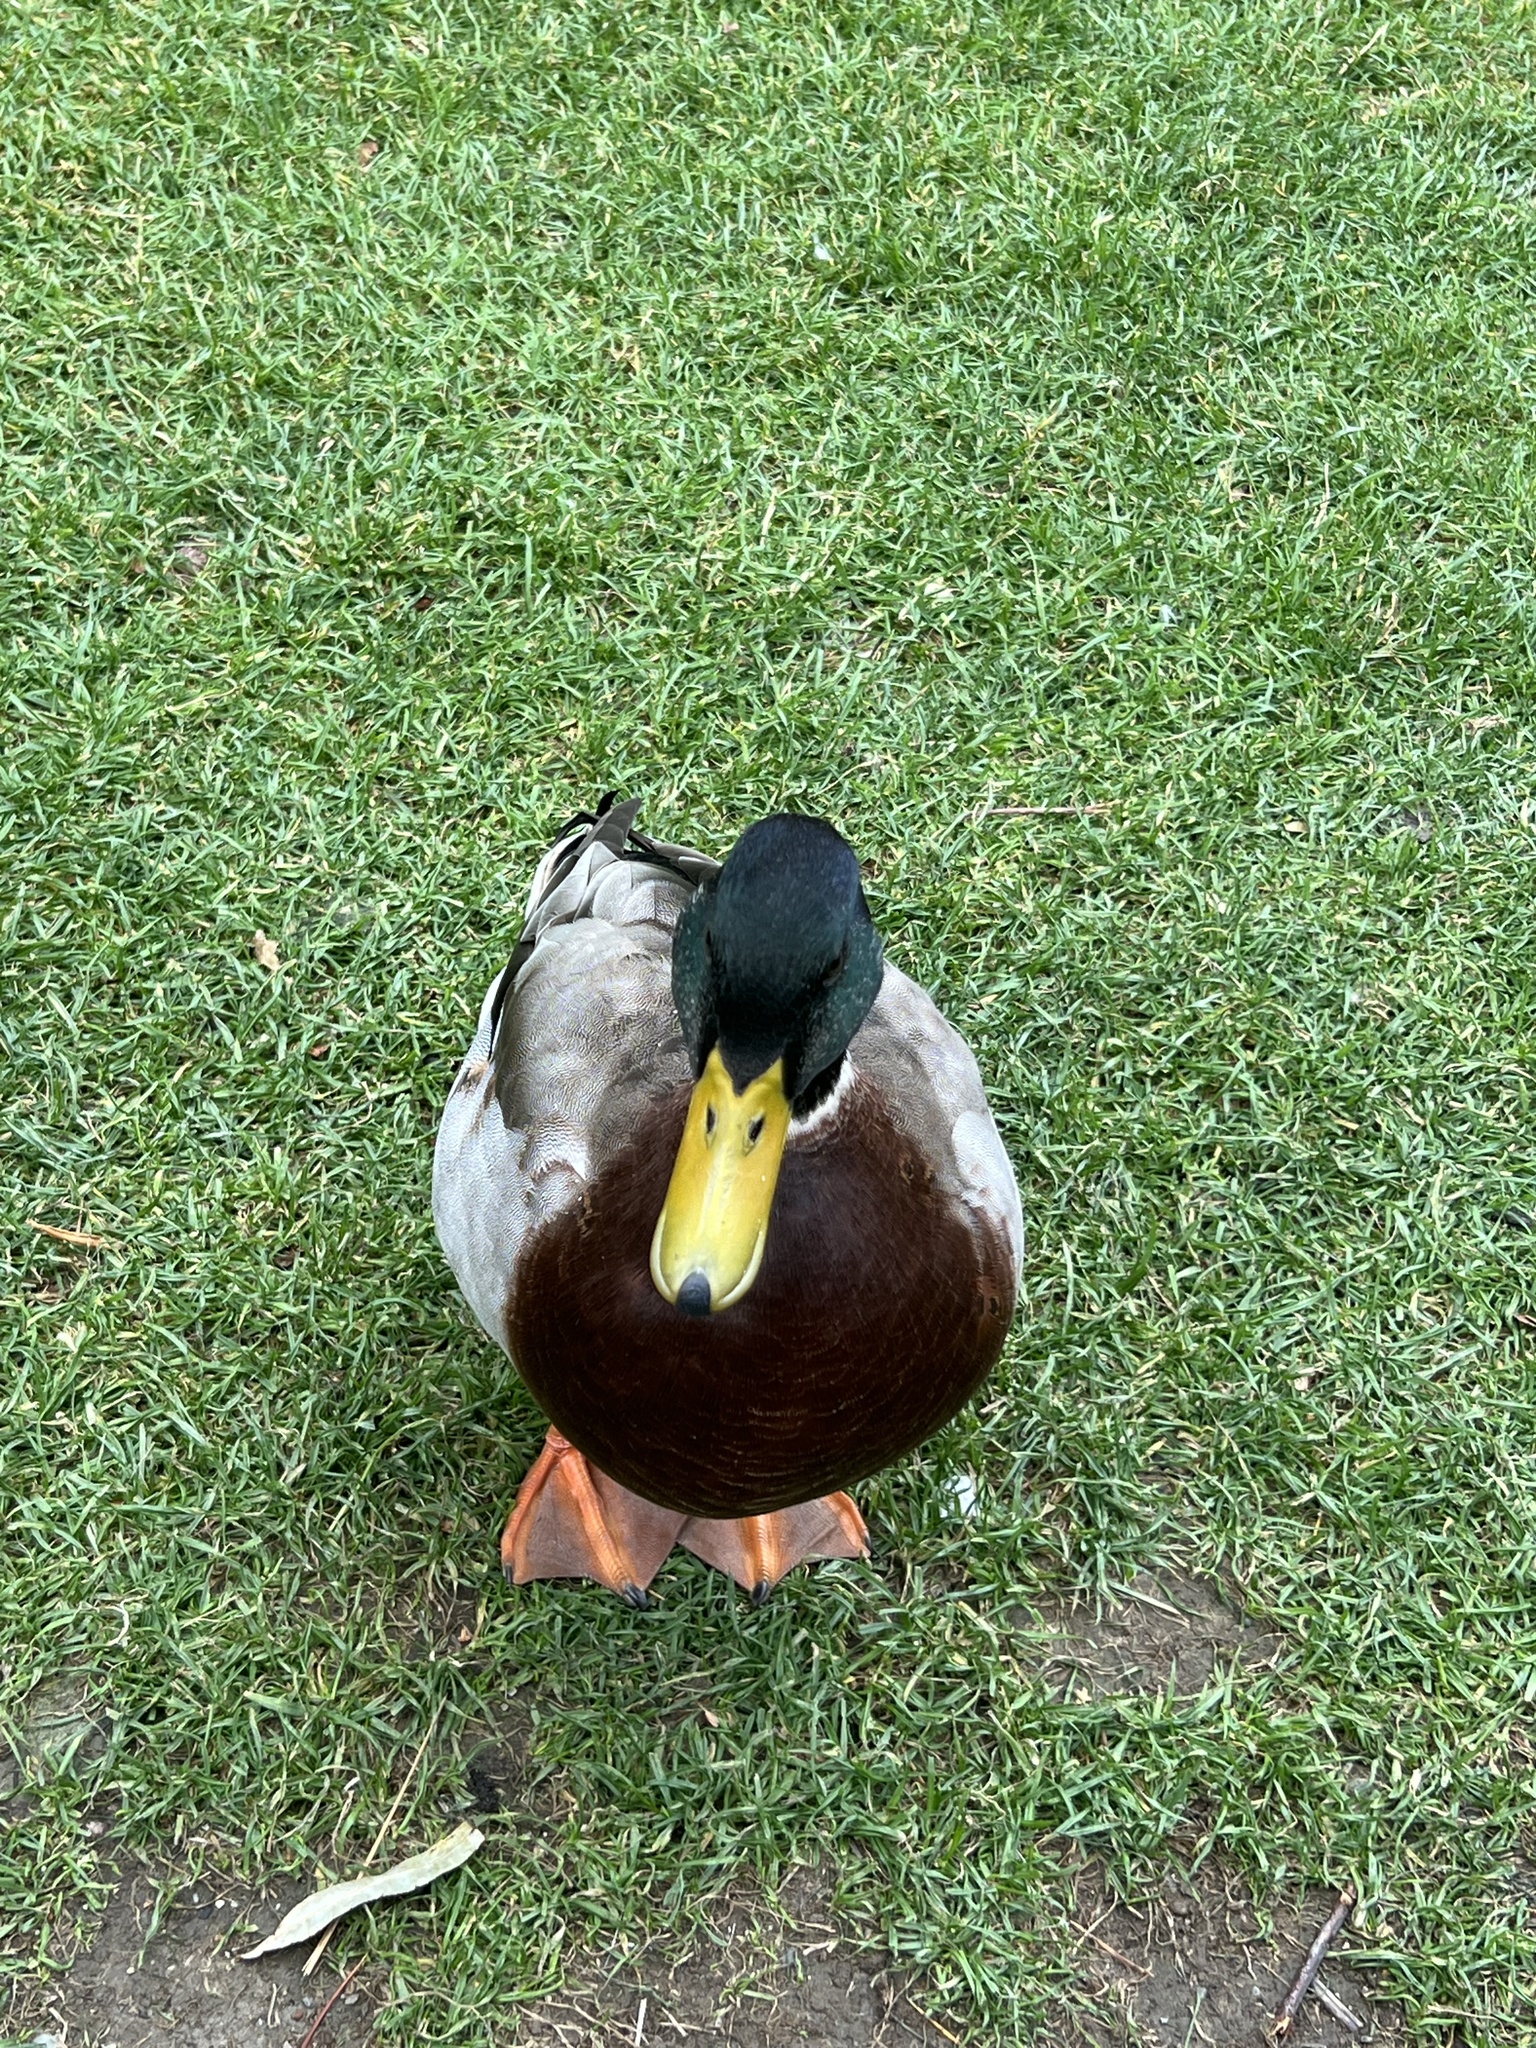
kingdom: Animalia
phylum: Chordata
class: Aves
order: Anseriformes
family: Anatidae
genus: Anas
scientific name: Anas platyrhynchos
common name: Mallard
